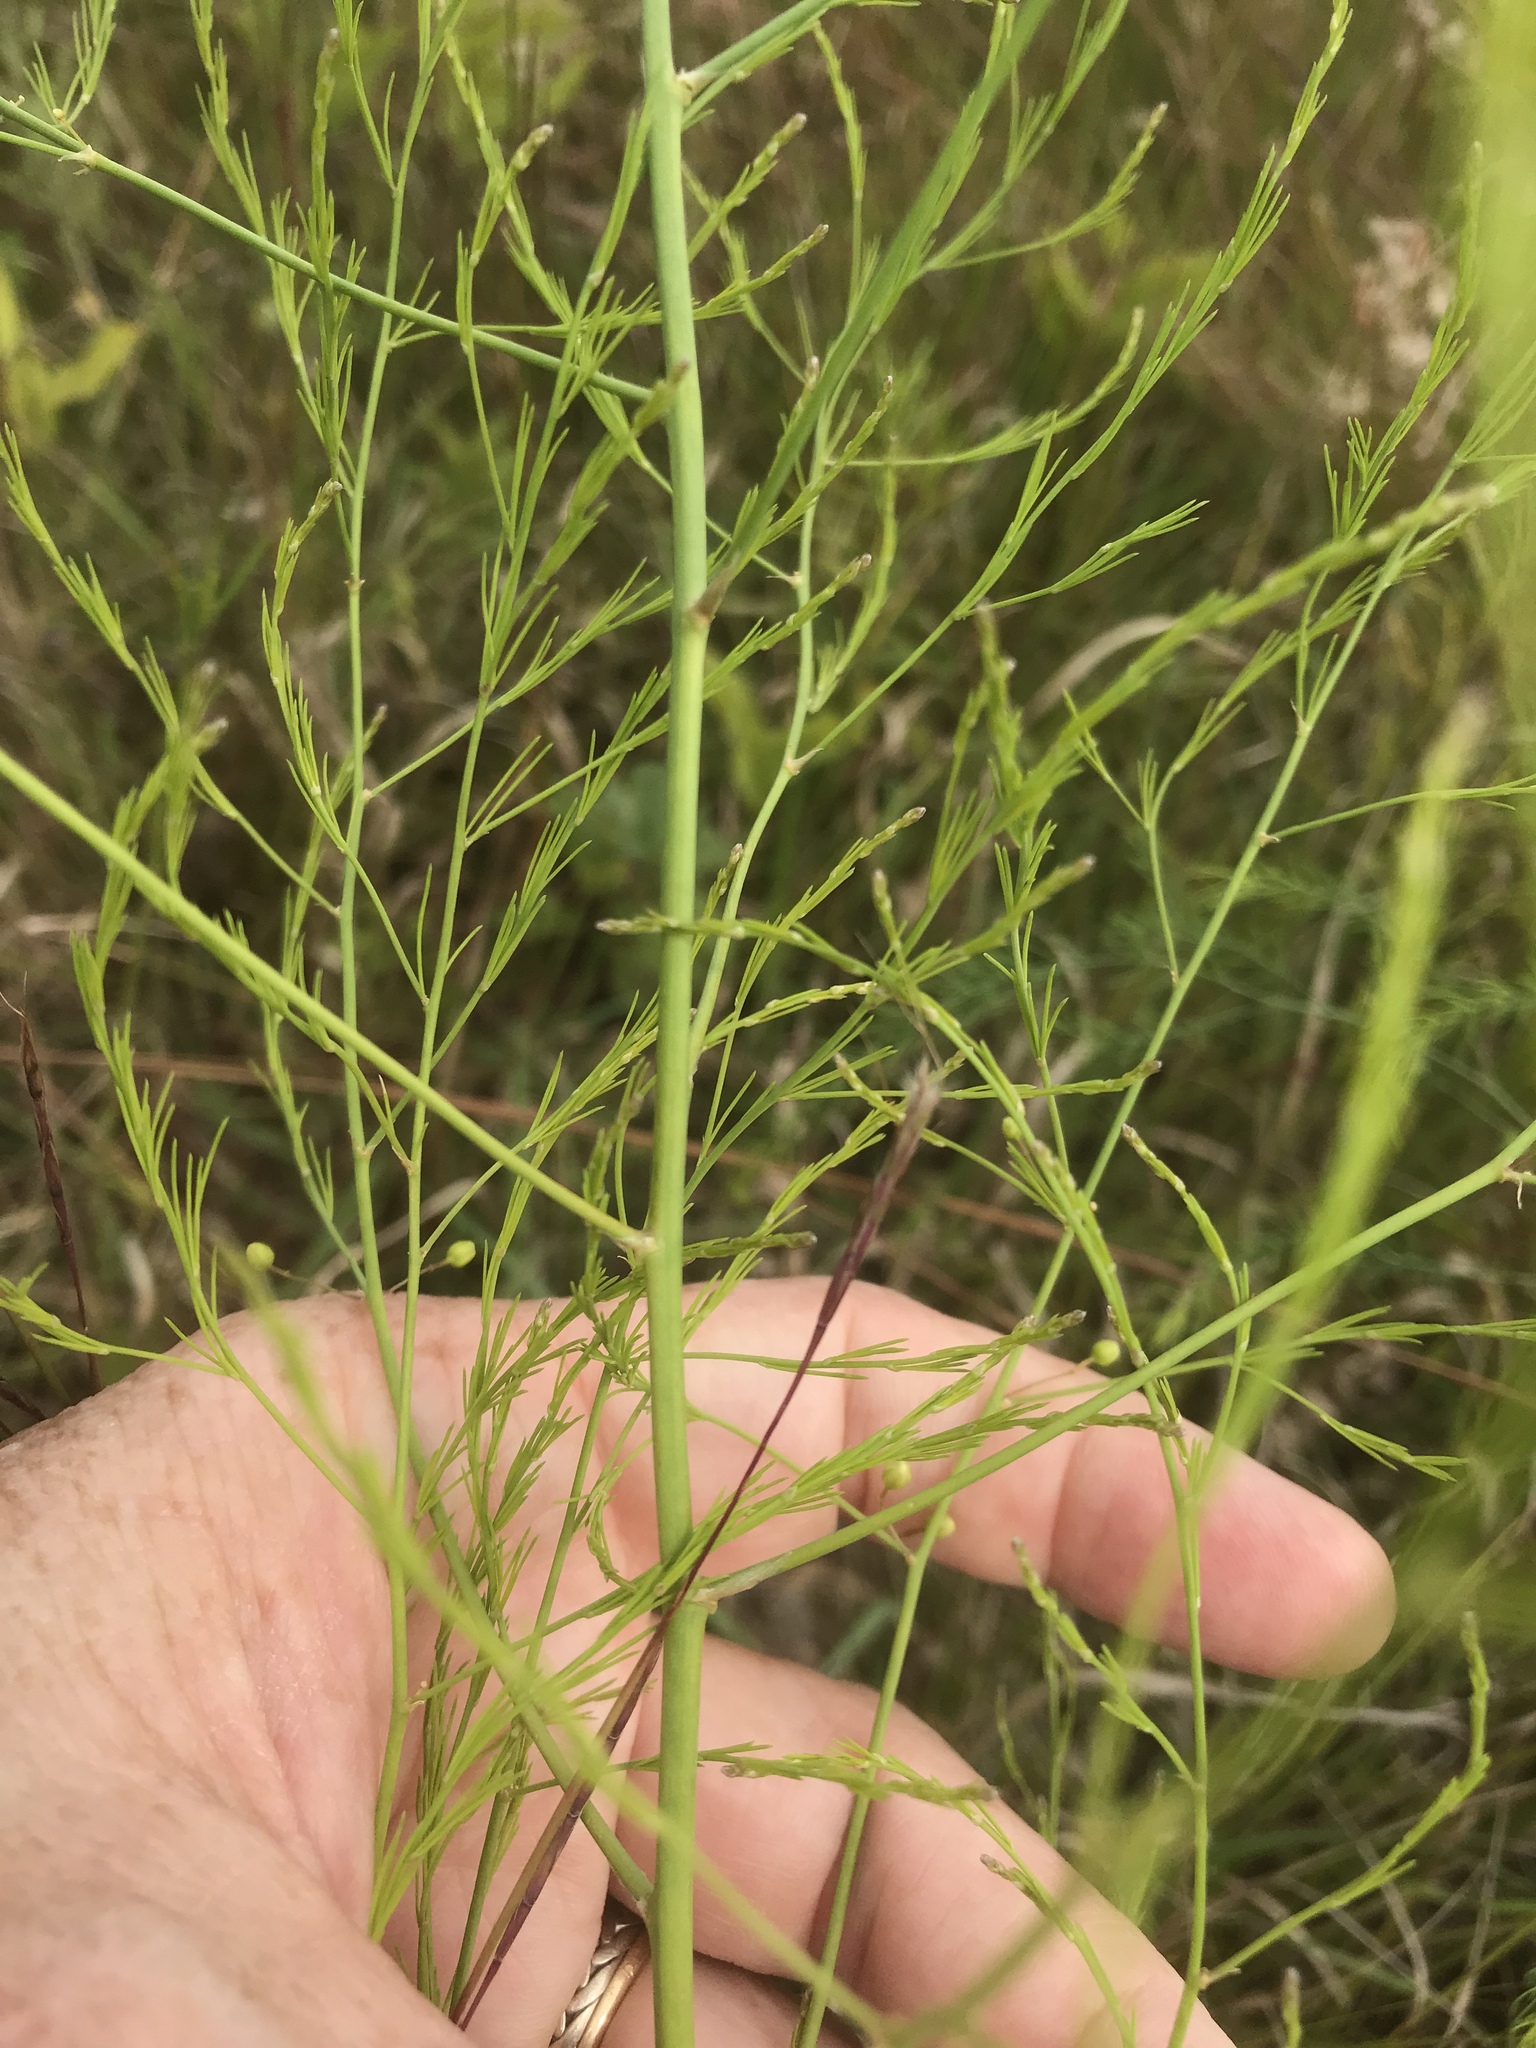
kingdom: Plantae
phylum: Tracheophyta
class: Liliopsida
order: Asparagales
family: Asparagaceae
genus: Asparagus
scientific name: Asparagus officinalis
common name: Garden asparagus
